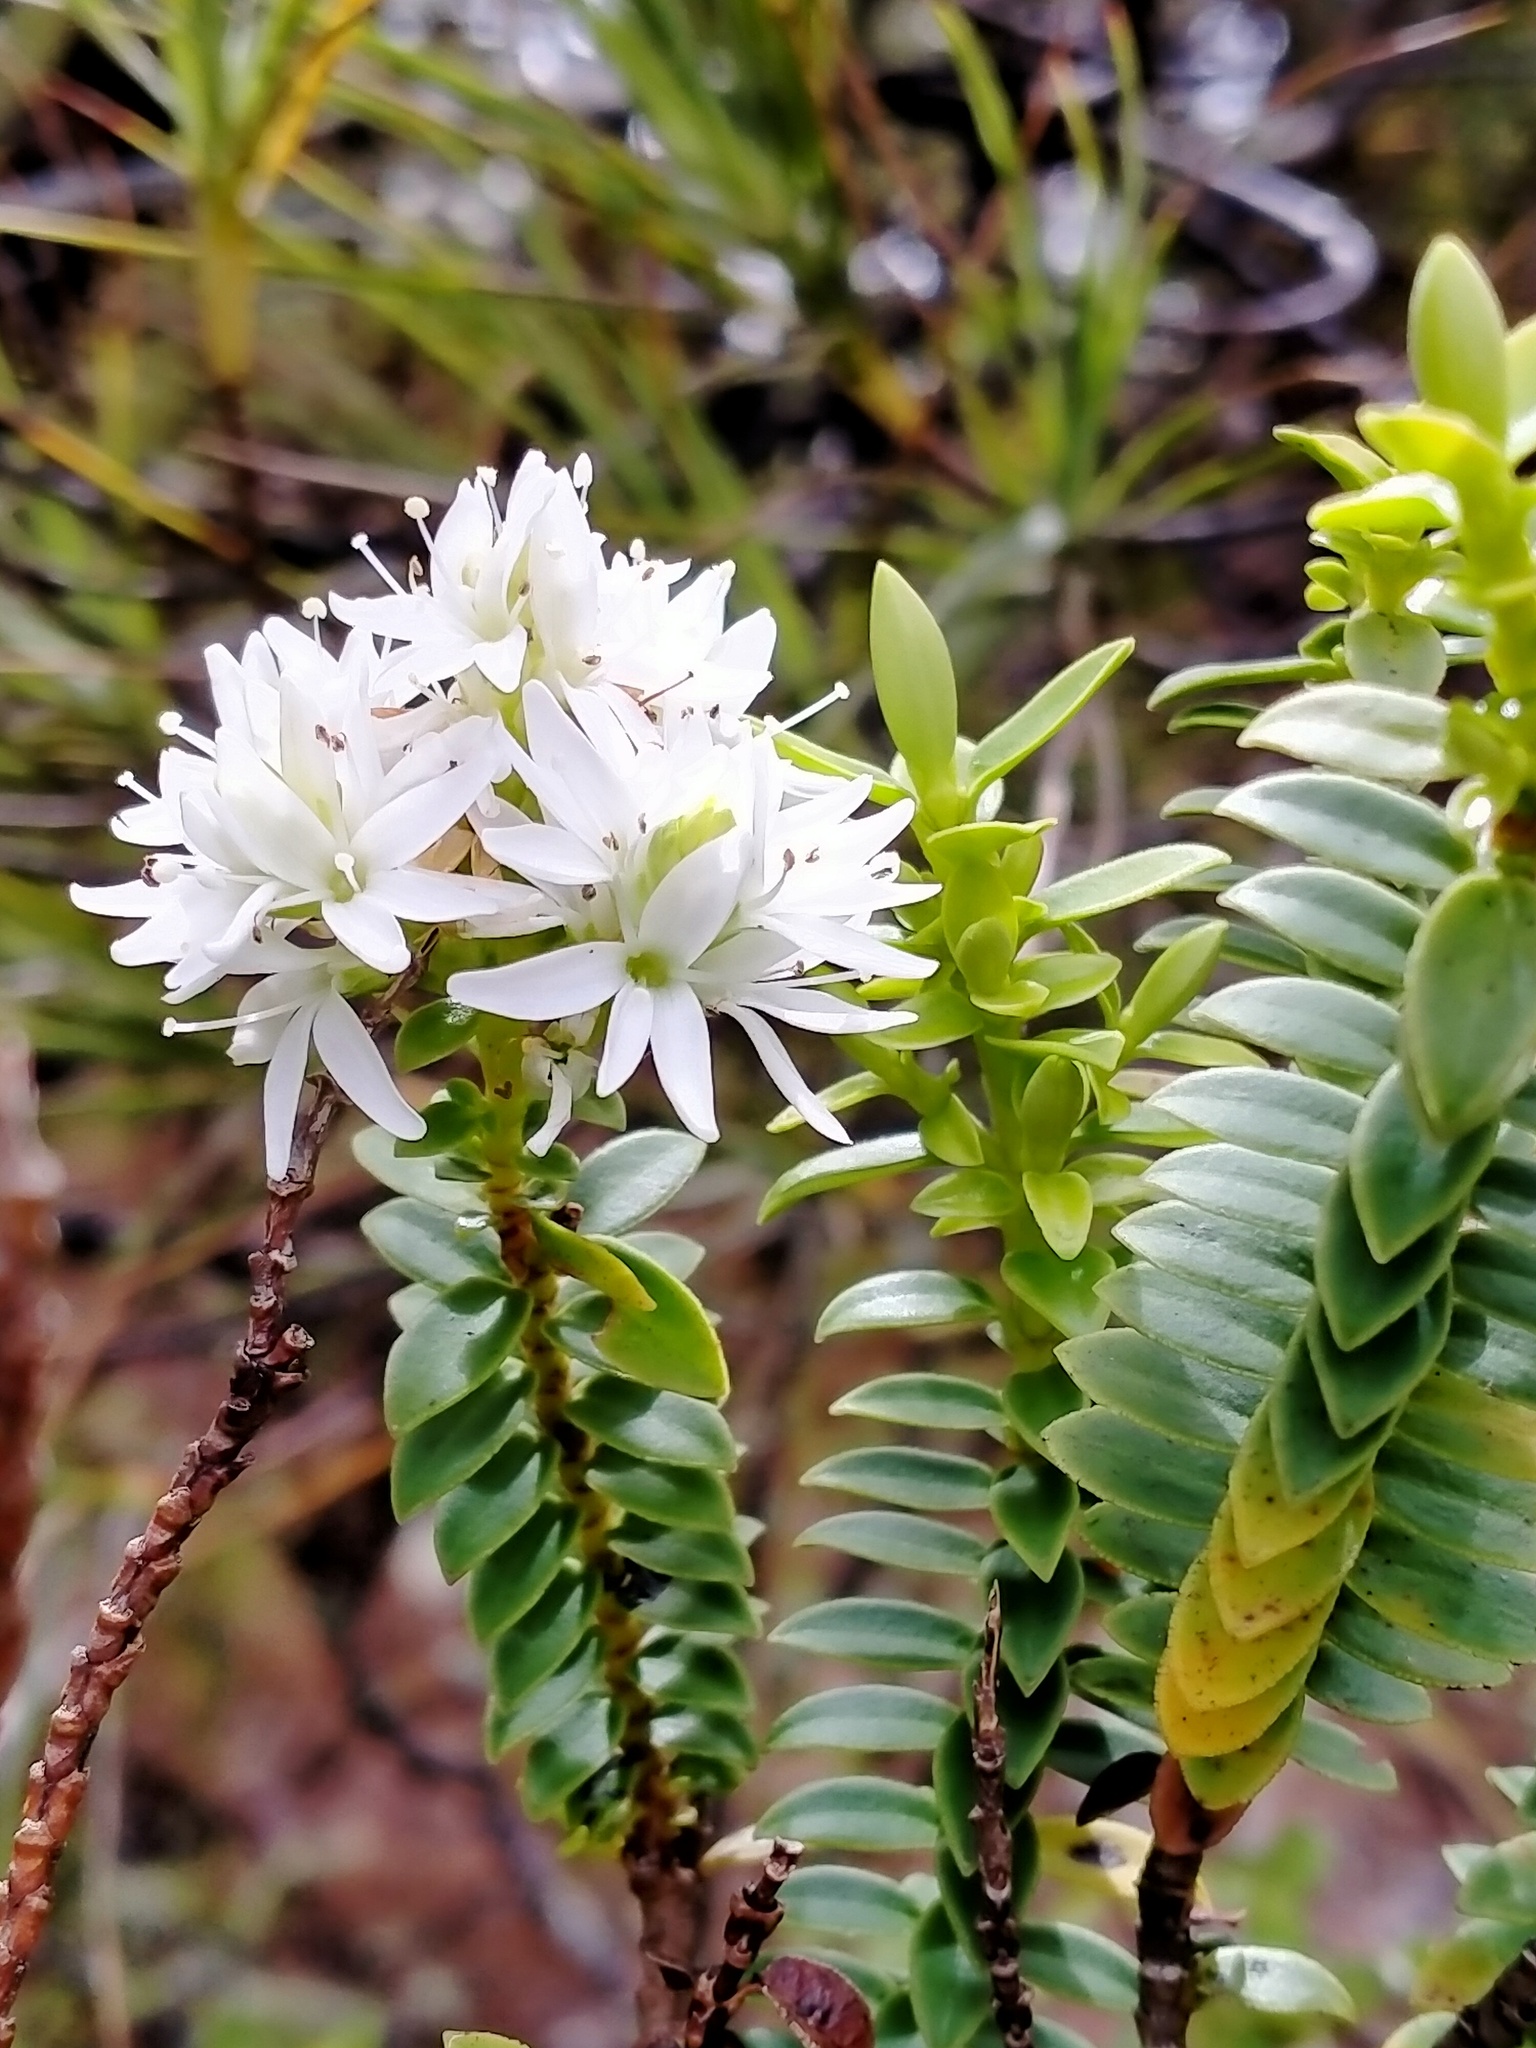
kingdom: Plantae
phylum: Tracheophyta
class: Magnoliopsida
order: Lamiales
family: Plantaginaceae
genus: Veronica
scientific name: Veronica elliptica
